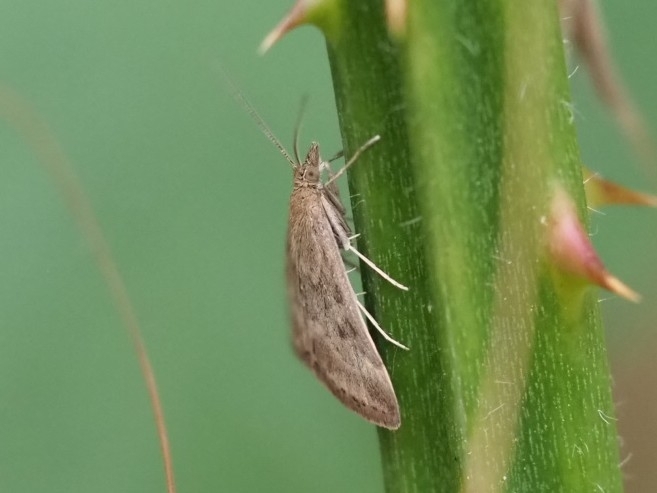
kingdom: Animalia
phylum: Arthropoda
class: Insecta
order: Lepidoptera
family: Crambidae
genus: Pyrausta
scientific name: Pyrausta despicata
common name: Straw-barred pearl
